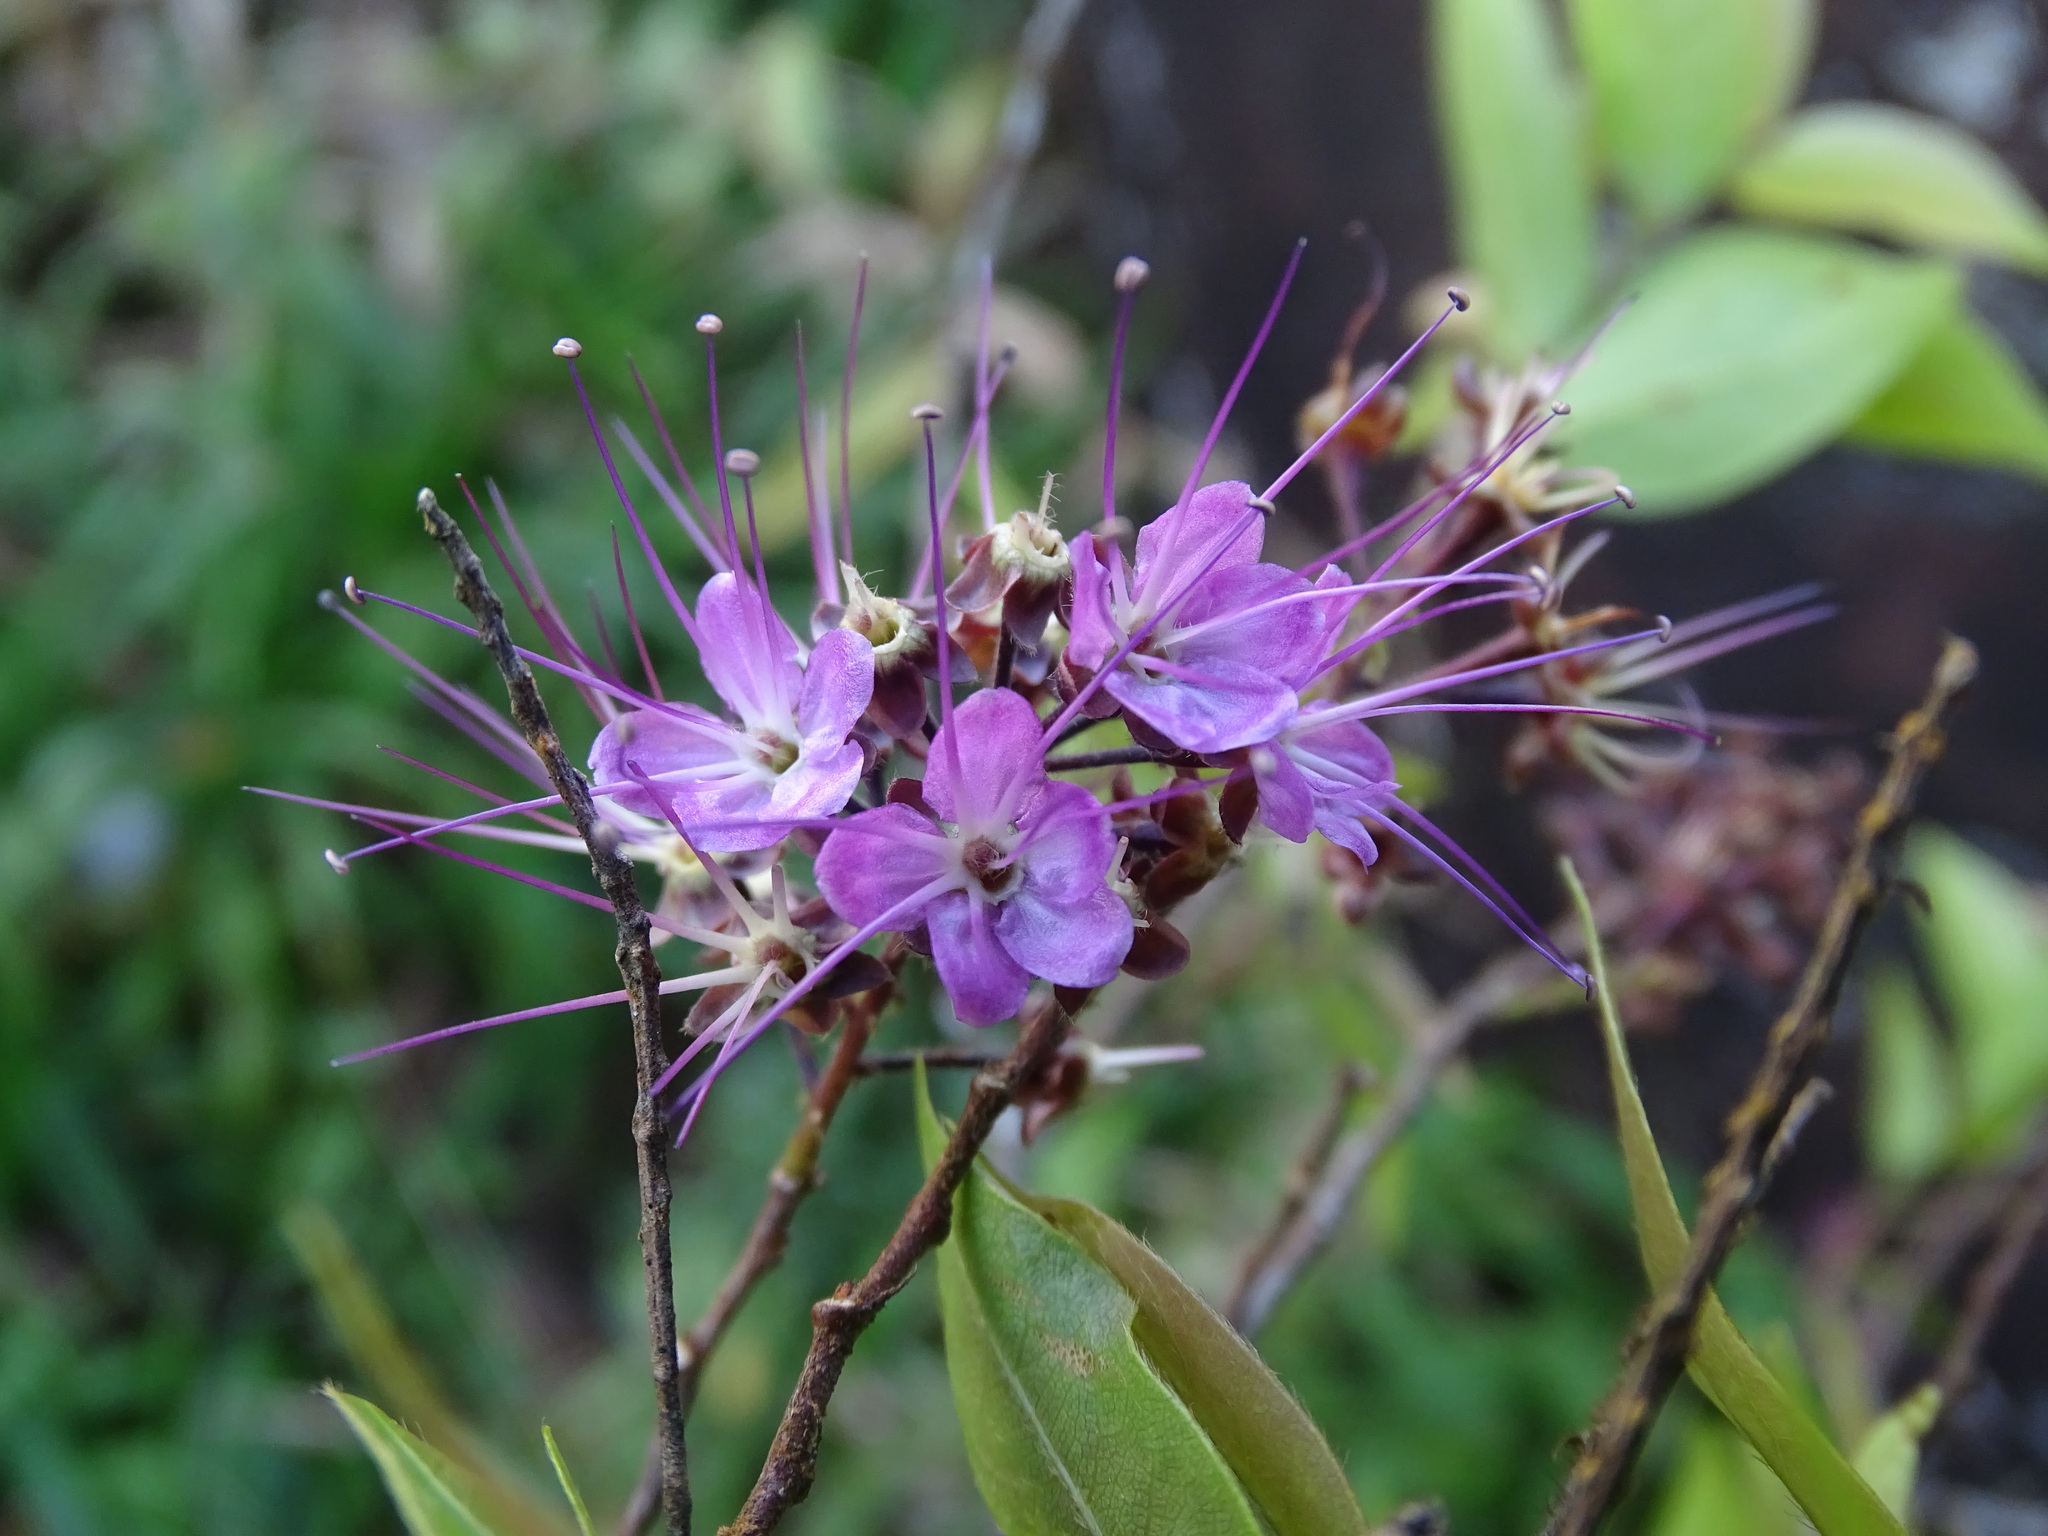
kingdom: Plantae
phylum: Tracheophyta
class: Magnoliopsida
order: Malpighiales
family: Chrysobalanaceae
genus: Hirtella
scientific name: Hirtella racemosa
